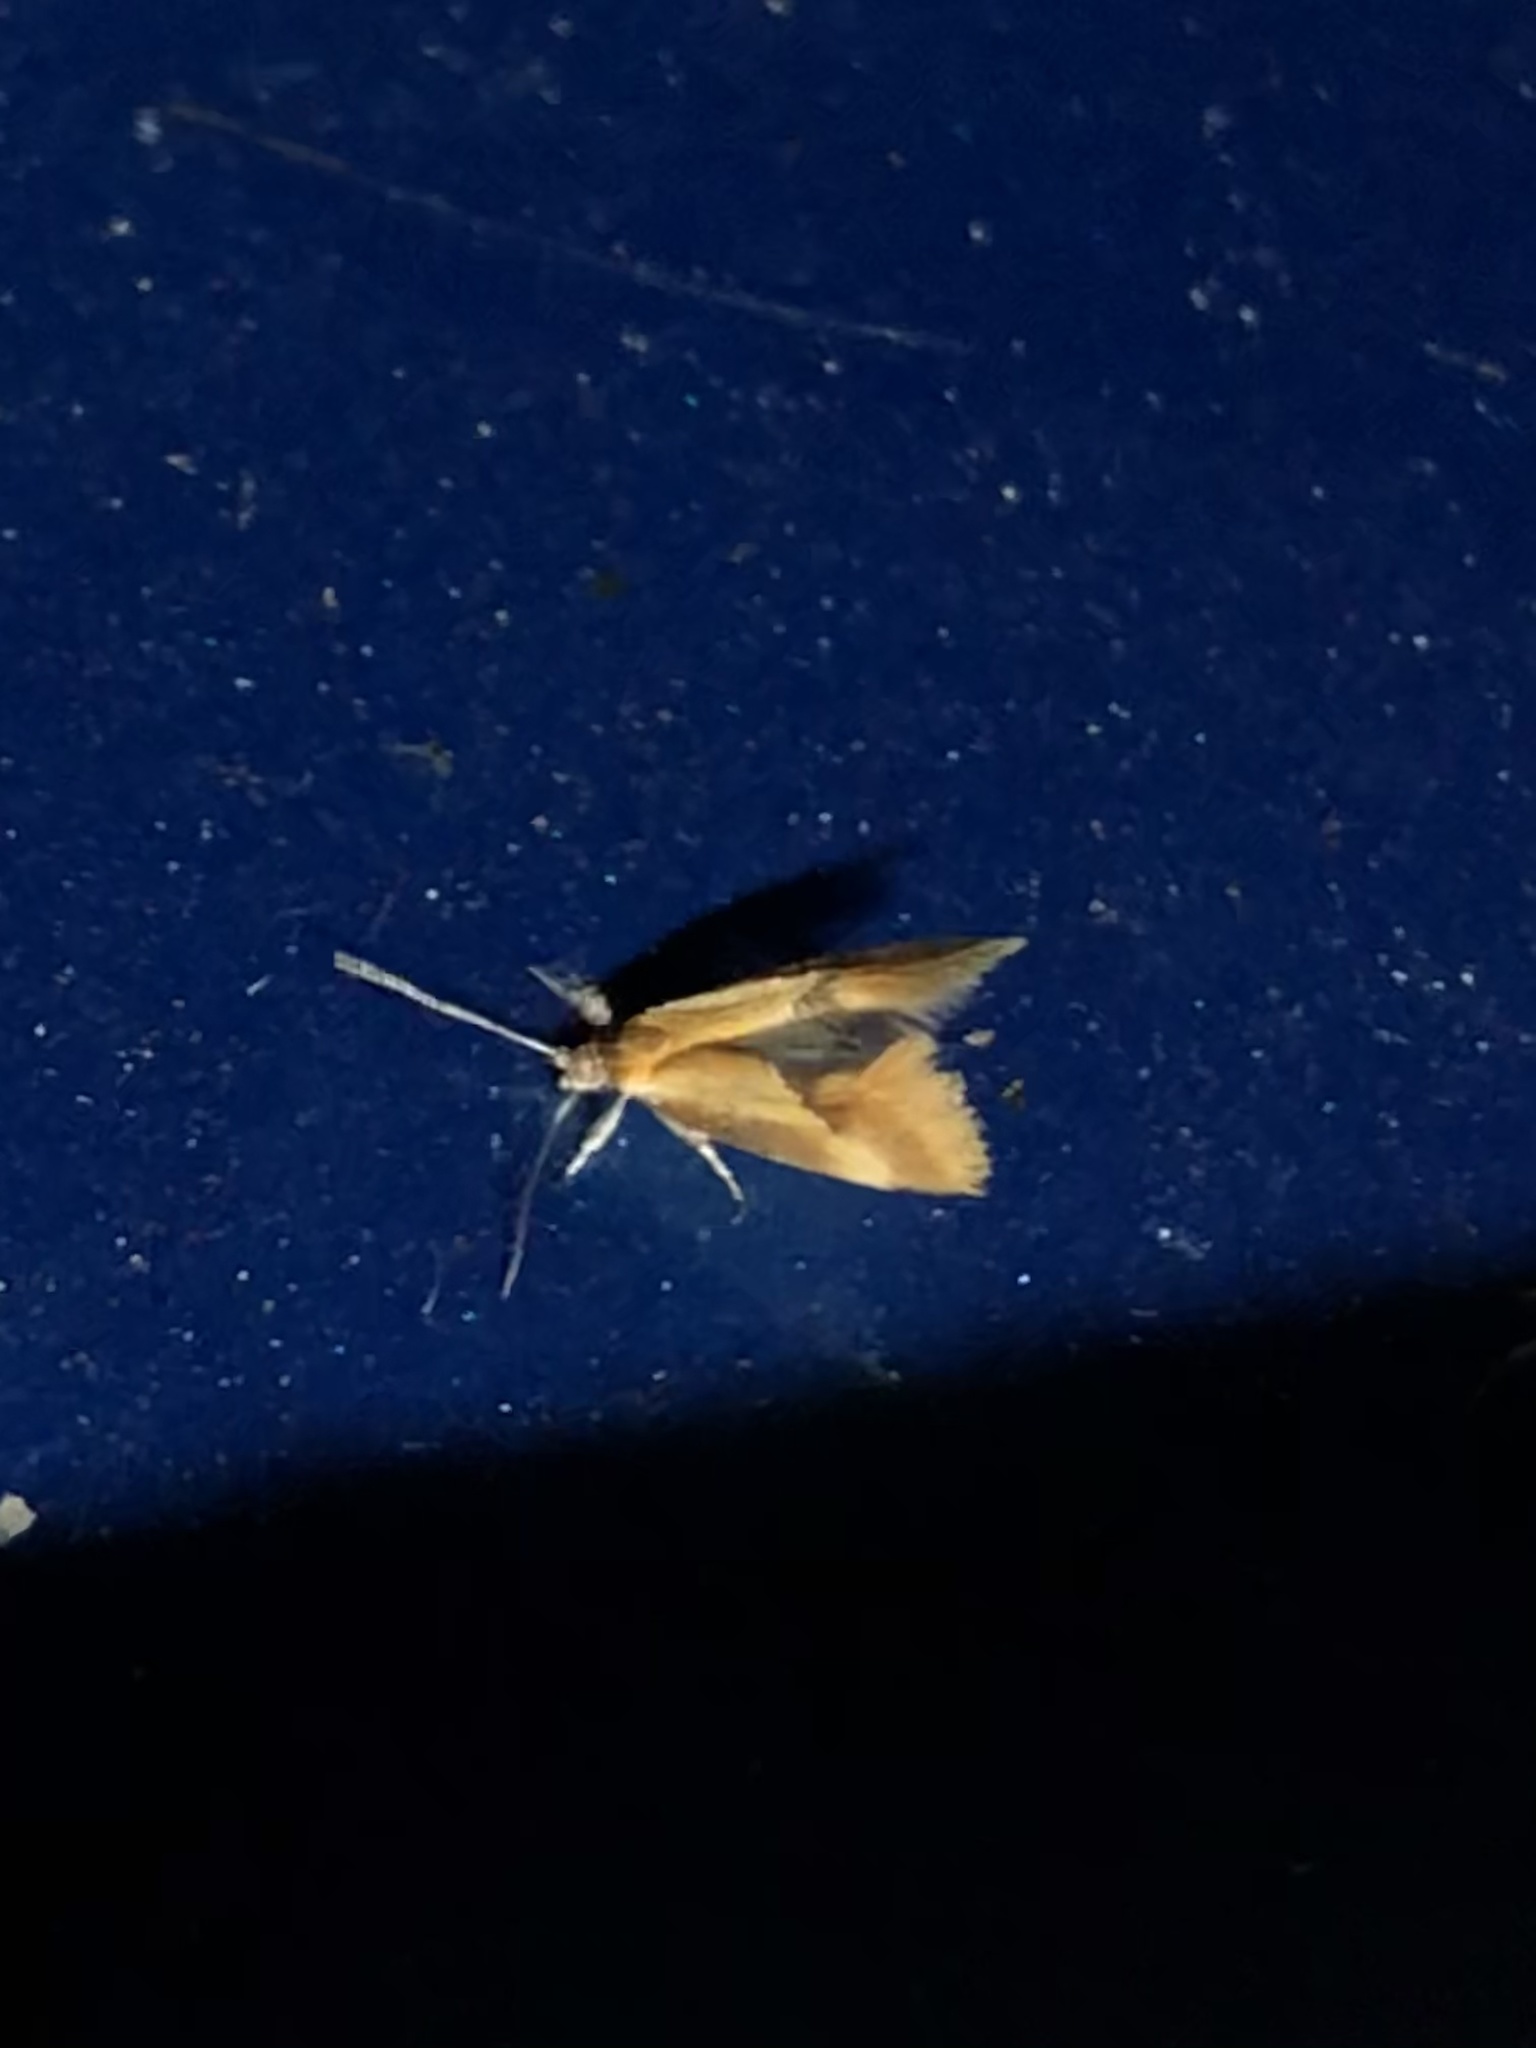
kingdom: Animalia
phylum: Arthropoda
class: Insecta
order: Lepidoptera
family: Oecophoridae
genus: Batia
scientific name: Batia lunaris
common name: Moth
